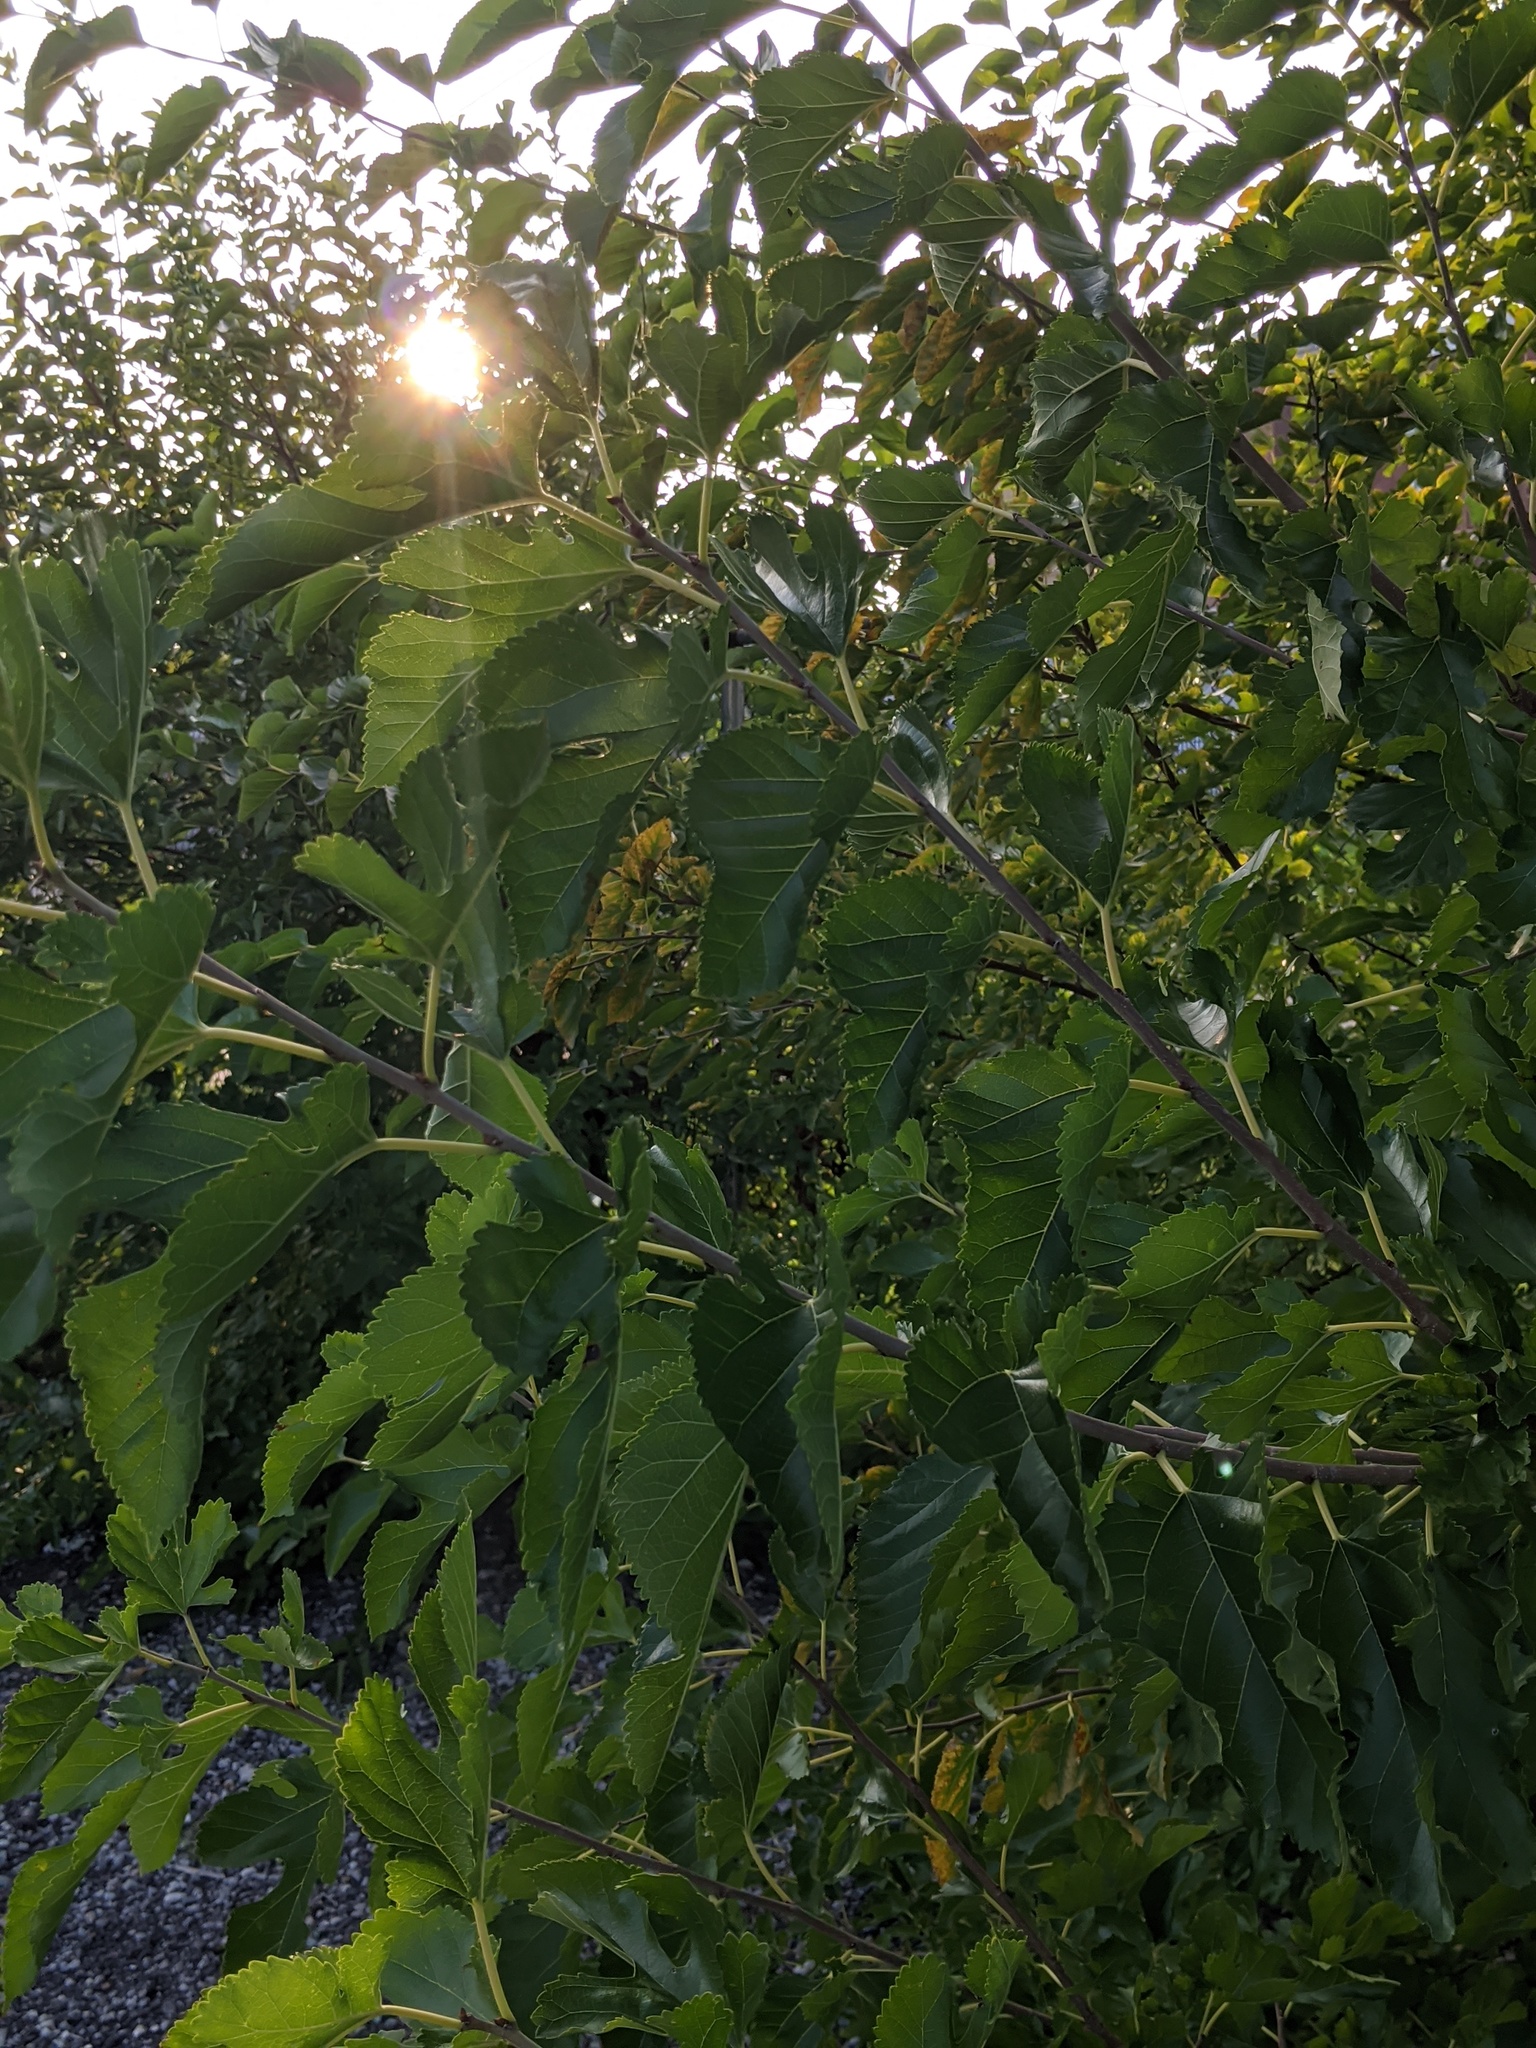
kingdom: Plantae
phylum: Tracheophyta
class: Magnoliopsida
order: Rosales
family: Moraceae
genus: Morus
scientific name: Morus alba
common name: White mulberry
